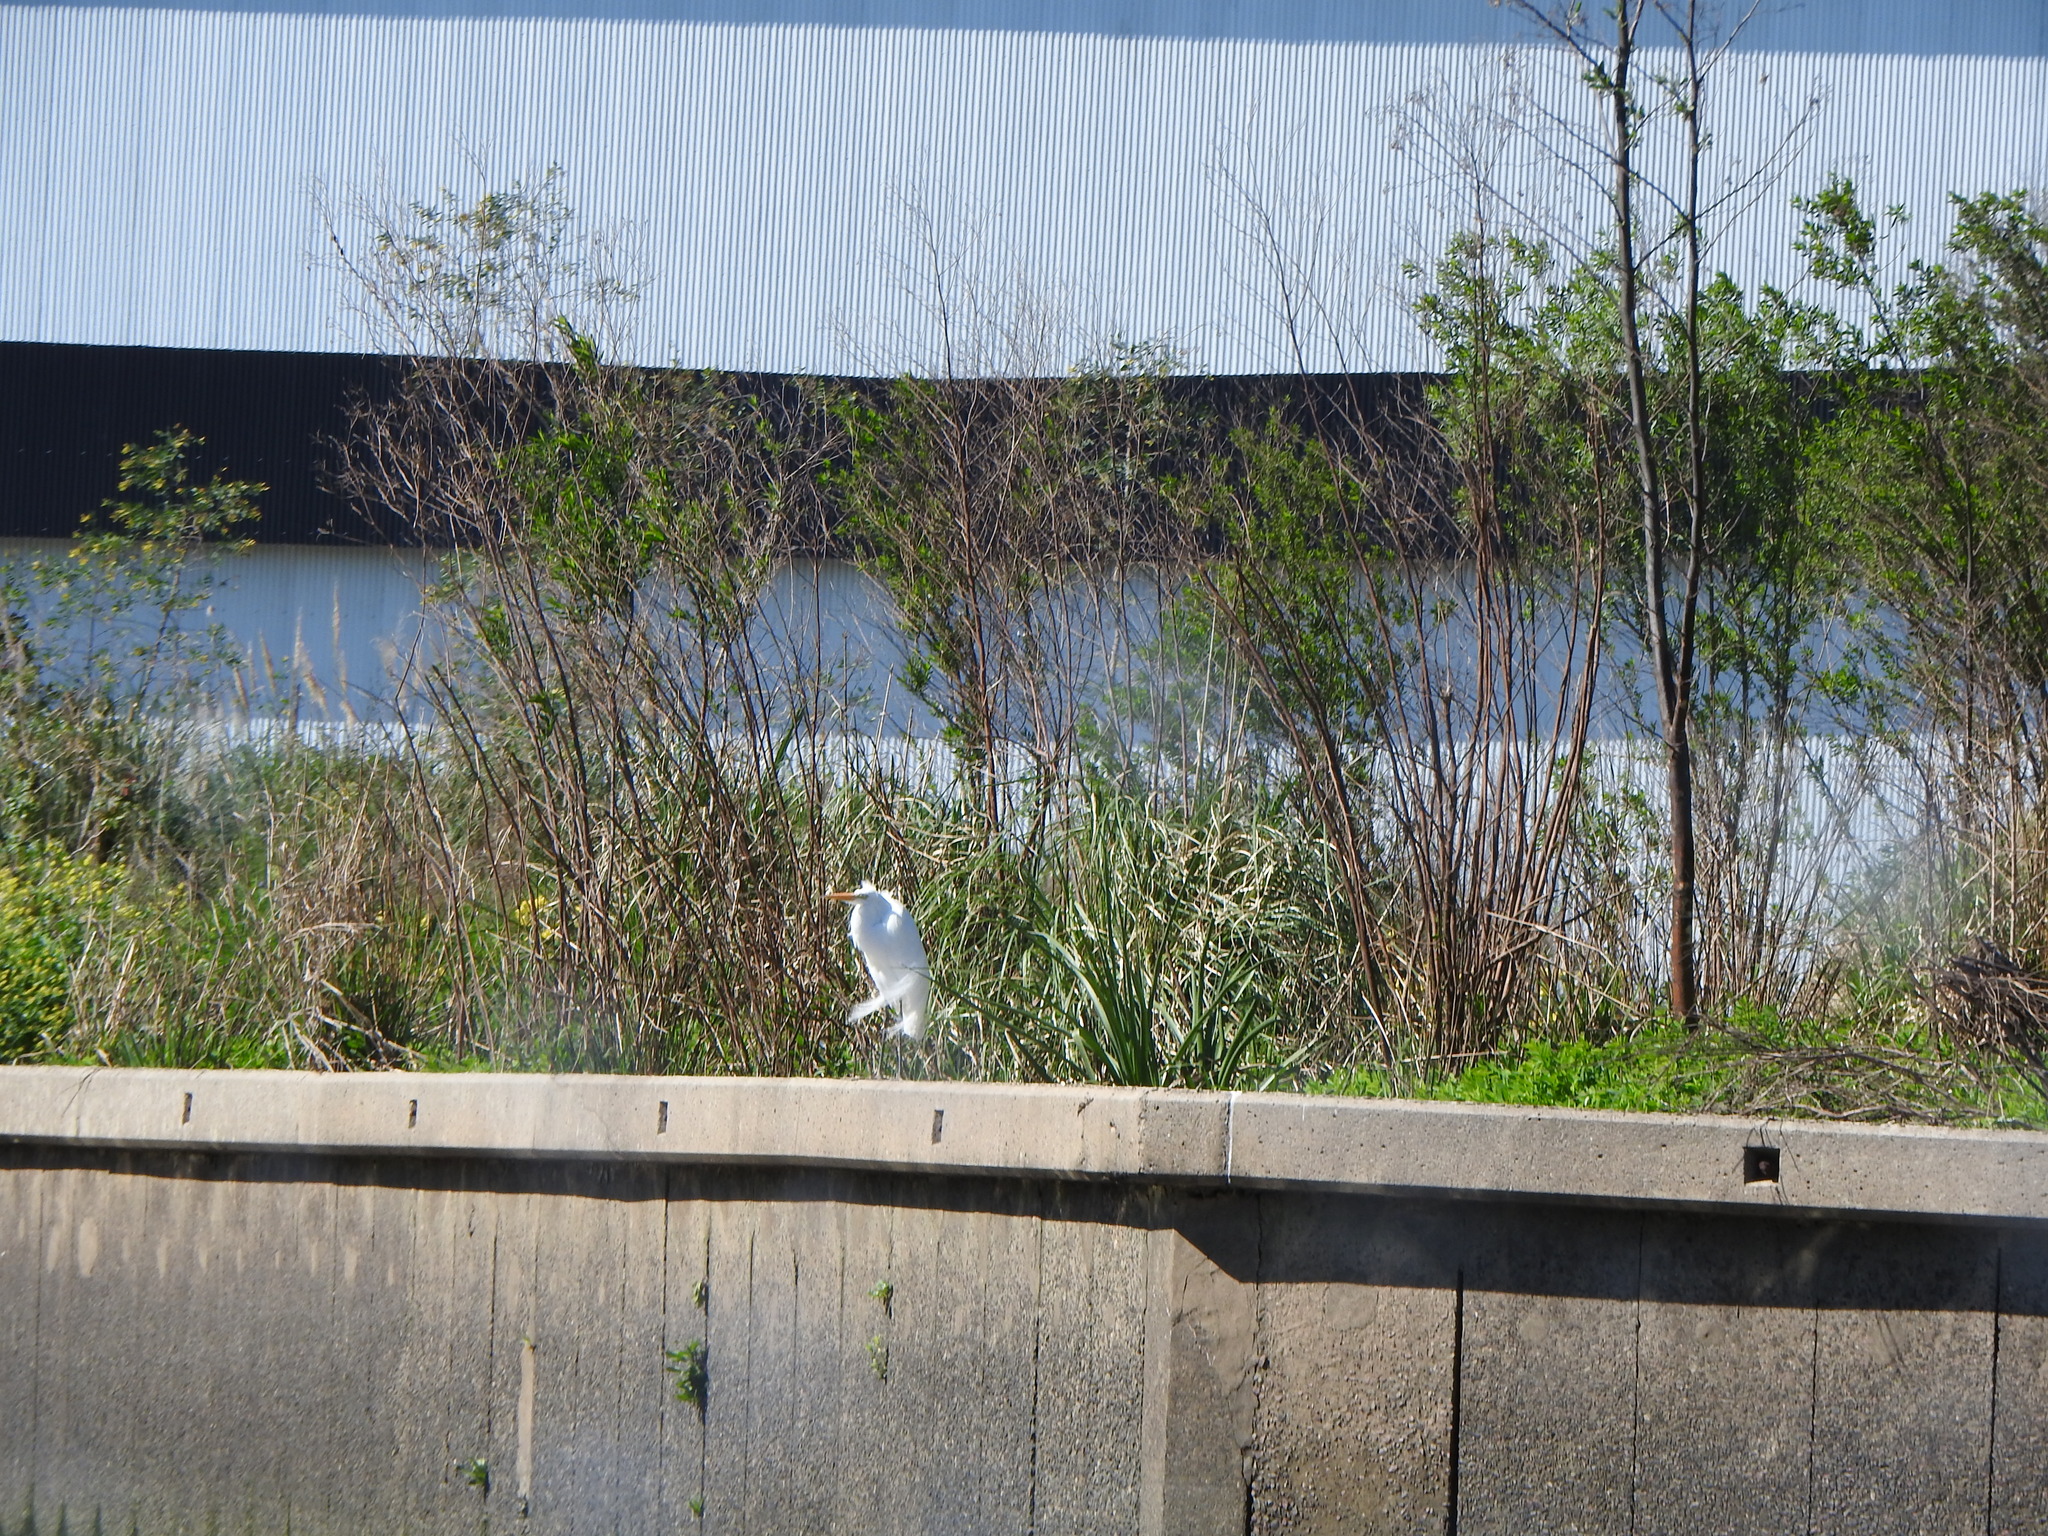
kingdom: Animalia
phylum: Chordata
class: Aves
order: Pelecaniformes
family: Ardeidae
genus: Ardea
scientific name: Ardea alba
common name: Great egret
